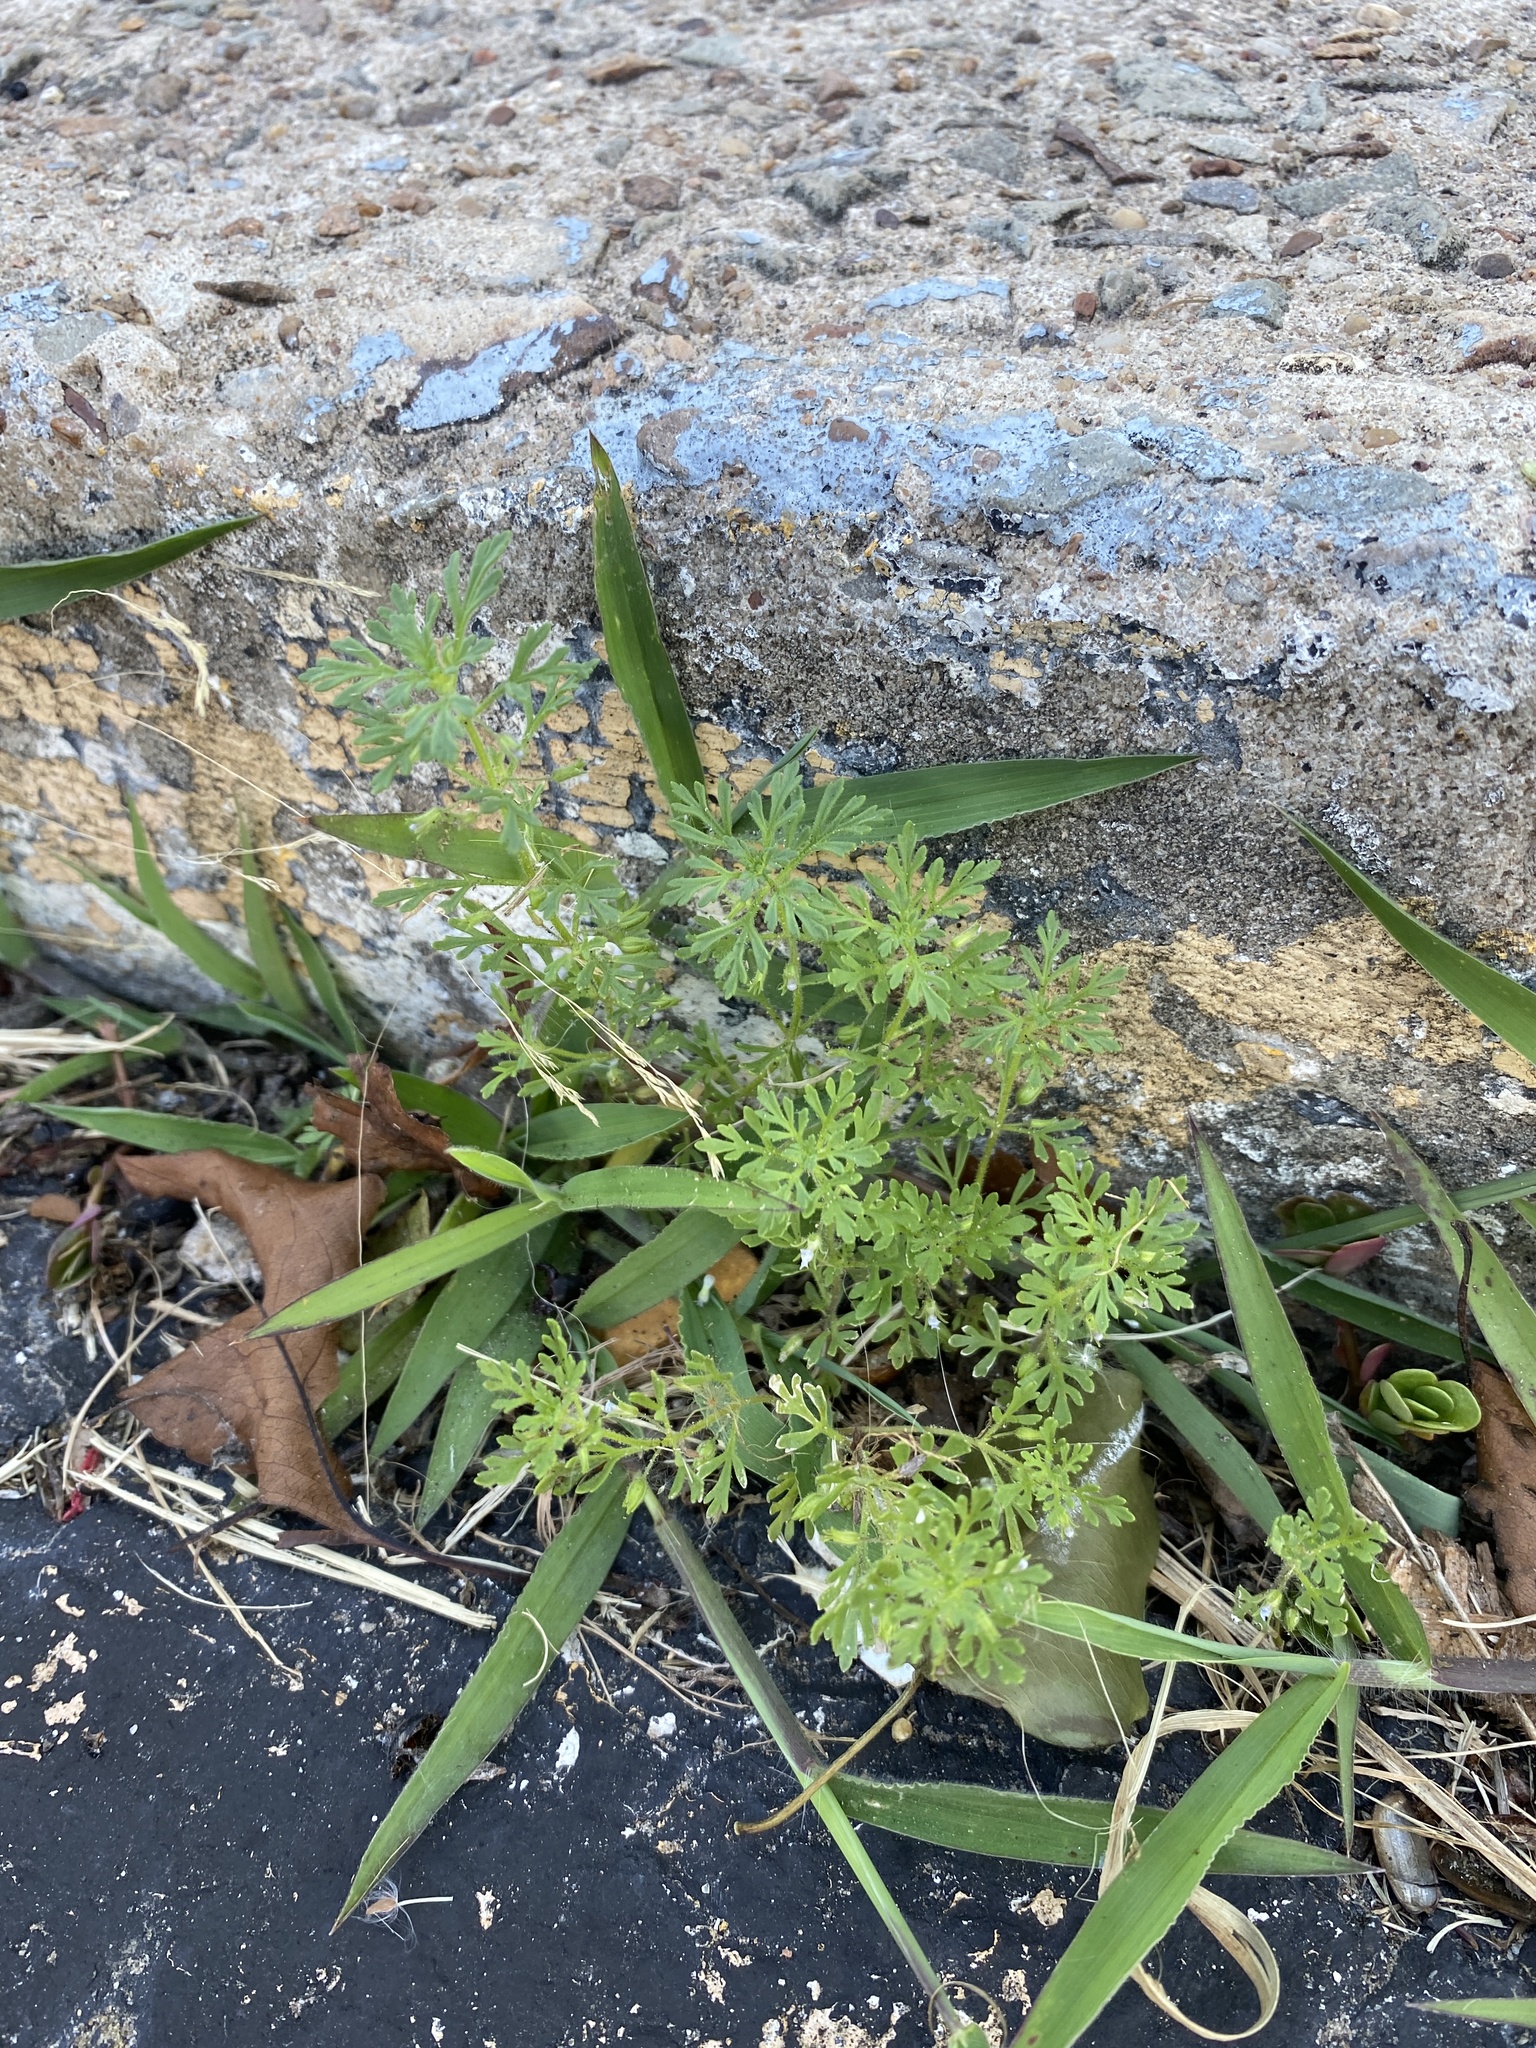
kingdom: Plantae
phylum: Tracheophyta
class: Magnoliopsida
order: Lamiales
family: Plantaginaceae
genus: Leucospora
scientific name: Leucospora multifida
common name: Narrow-leaf paleseed
